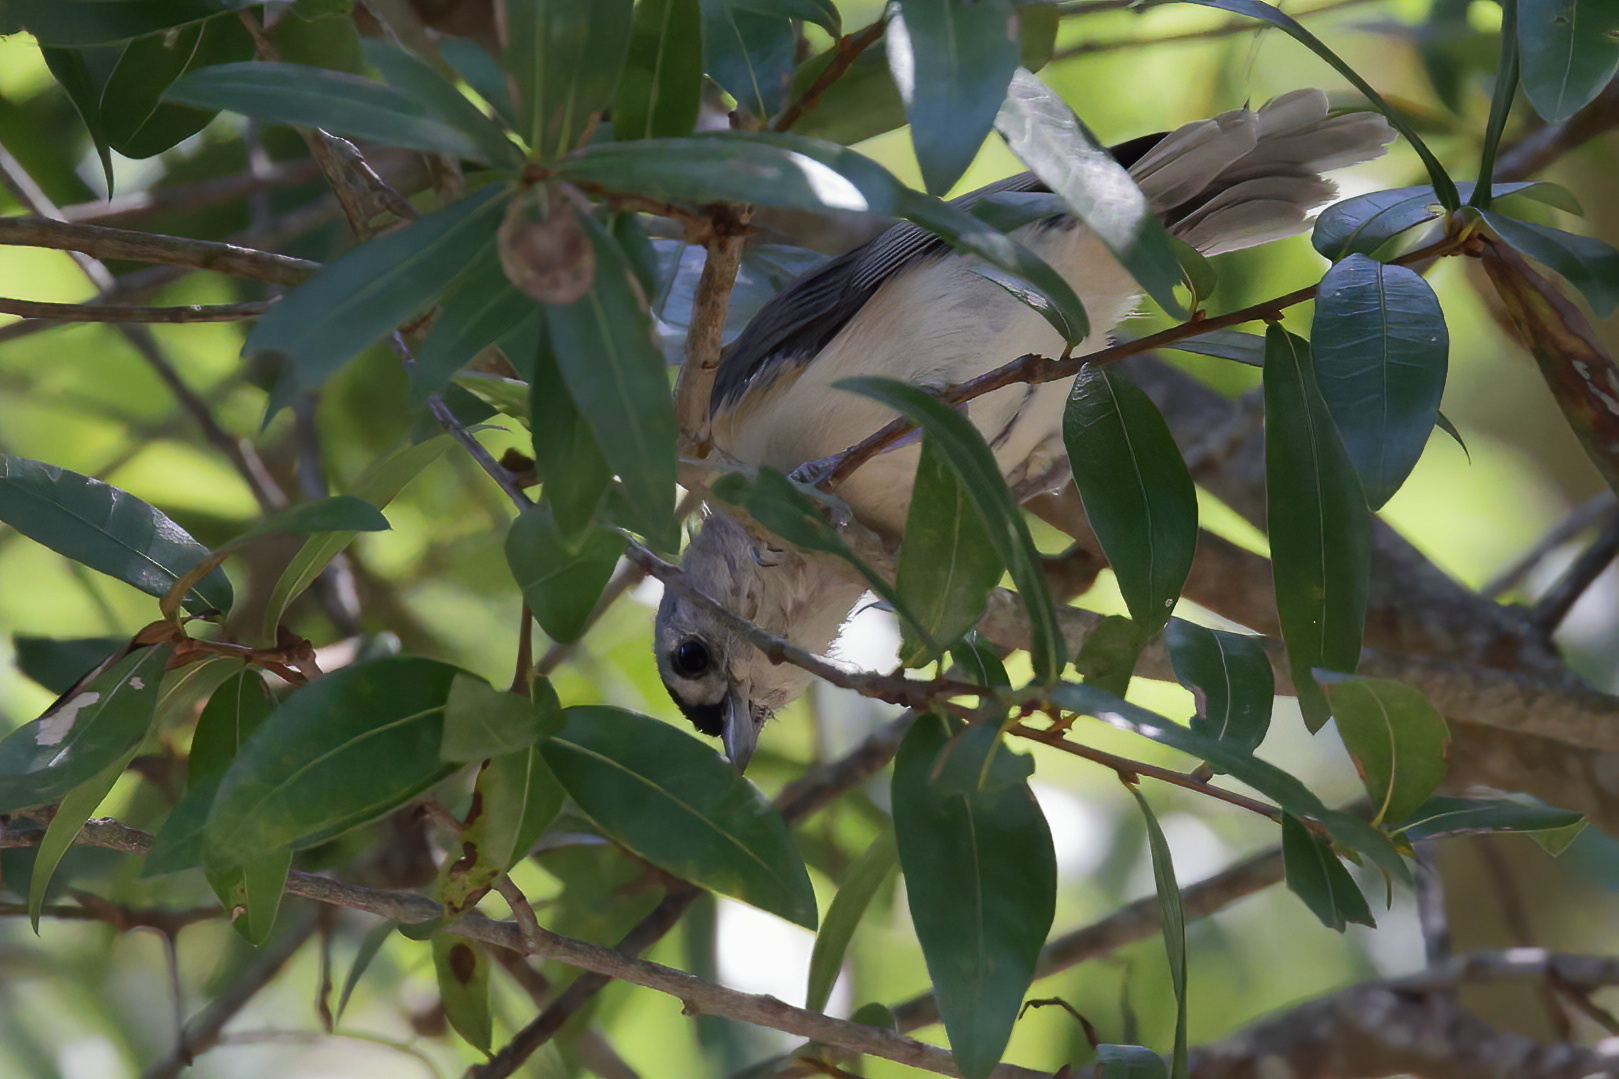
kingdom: Animalia
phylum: Chordata
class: Aves
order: Passeriformes
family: Paridae
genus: Baeolophus
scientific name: Baeolophus bicolor
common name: Tufted titmouse
